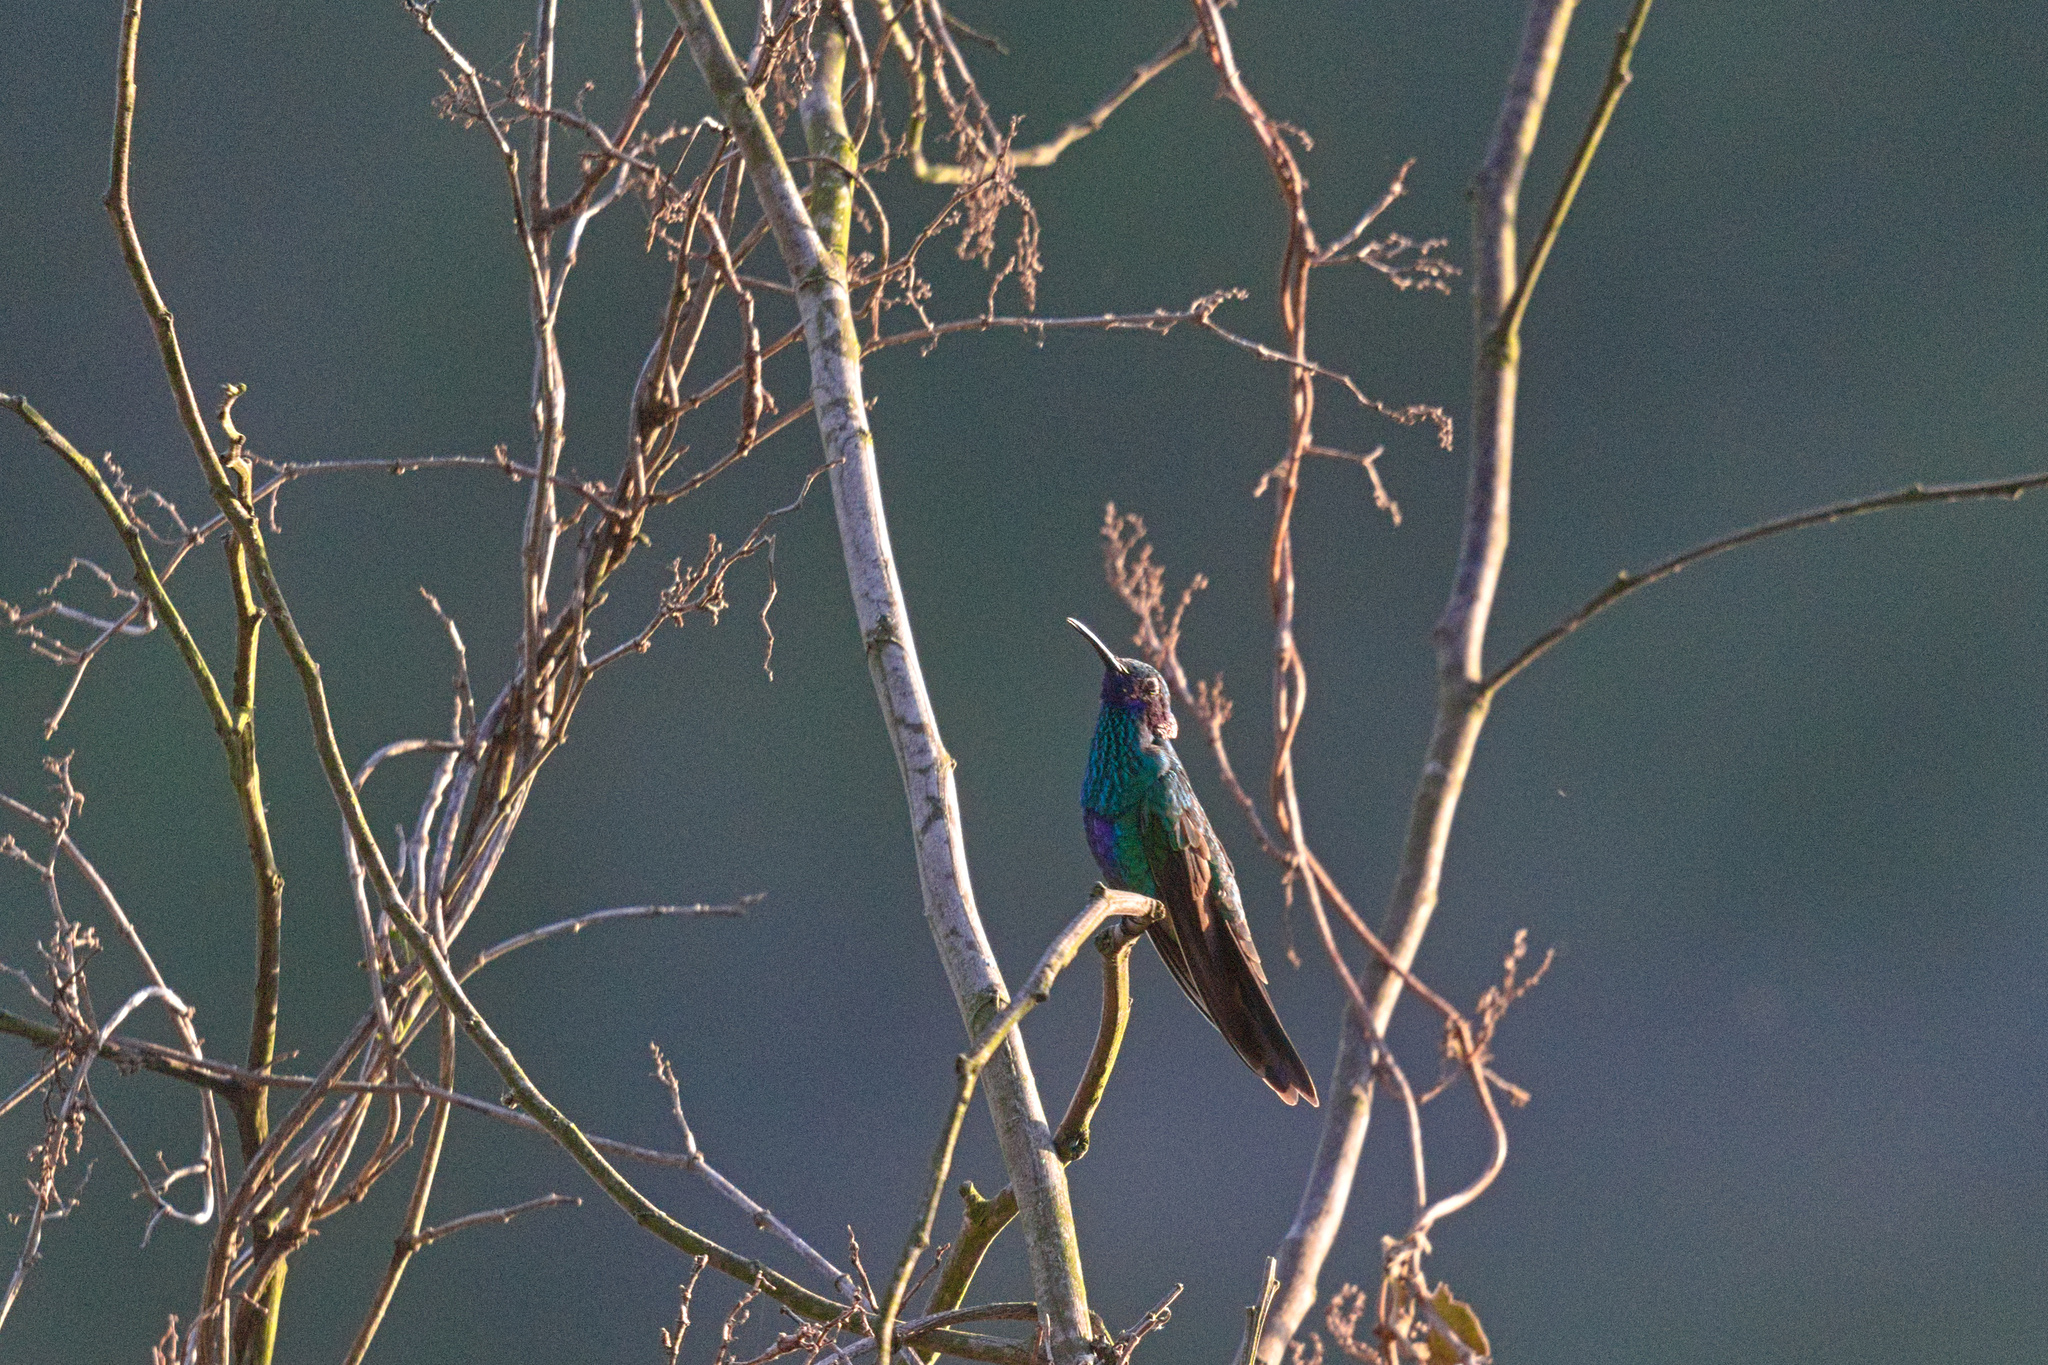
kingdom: Animalia
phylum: Chordata
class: Aves
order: Apodiformes
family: Trochilidae
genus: Colibri
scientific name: Colibri coruscans
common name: Sparkling violetear
